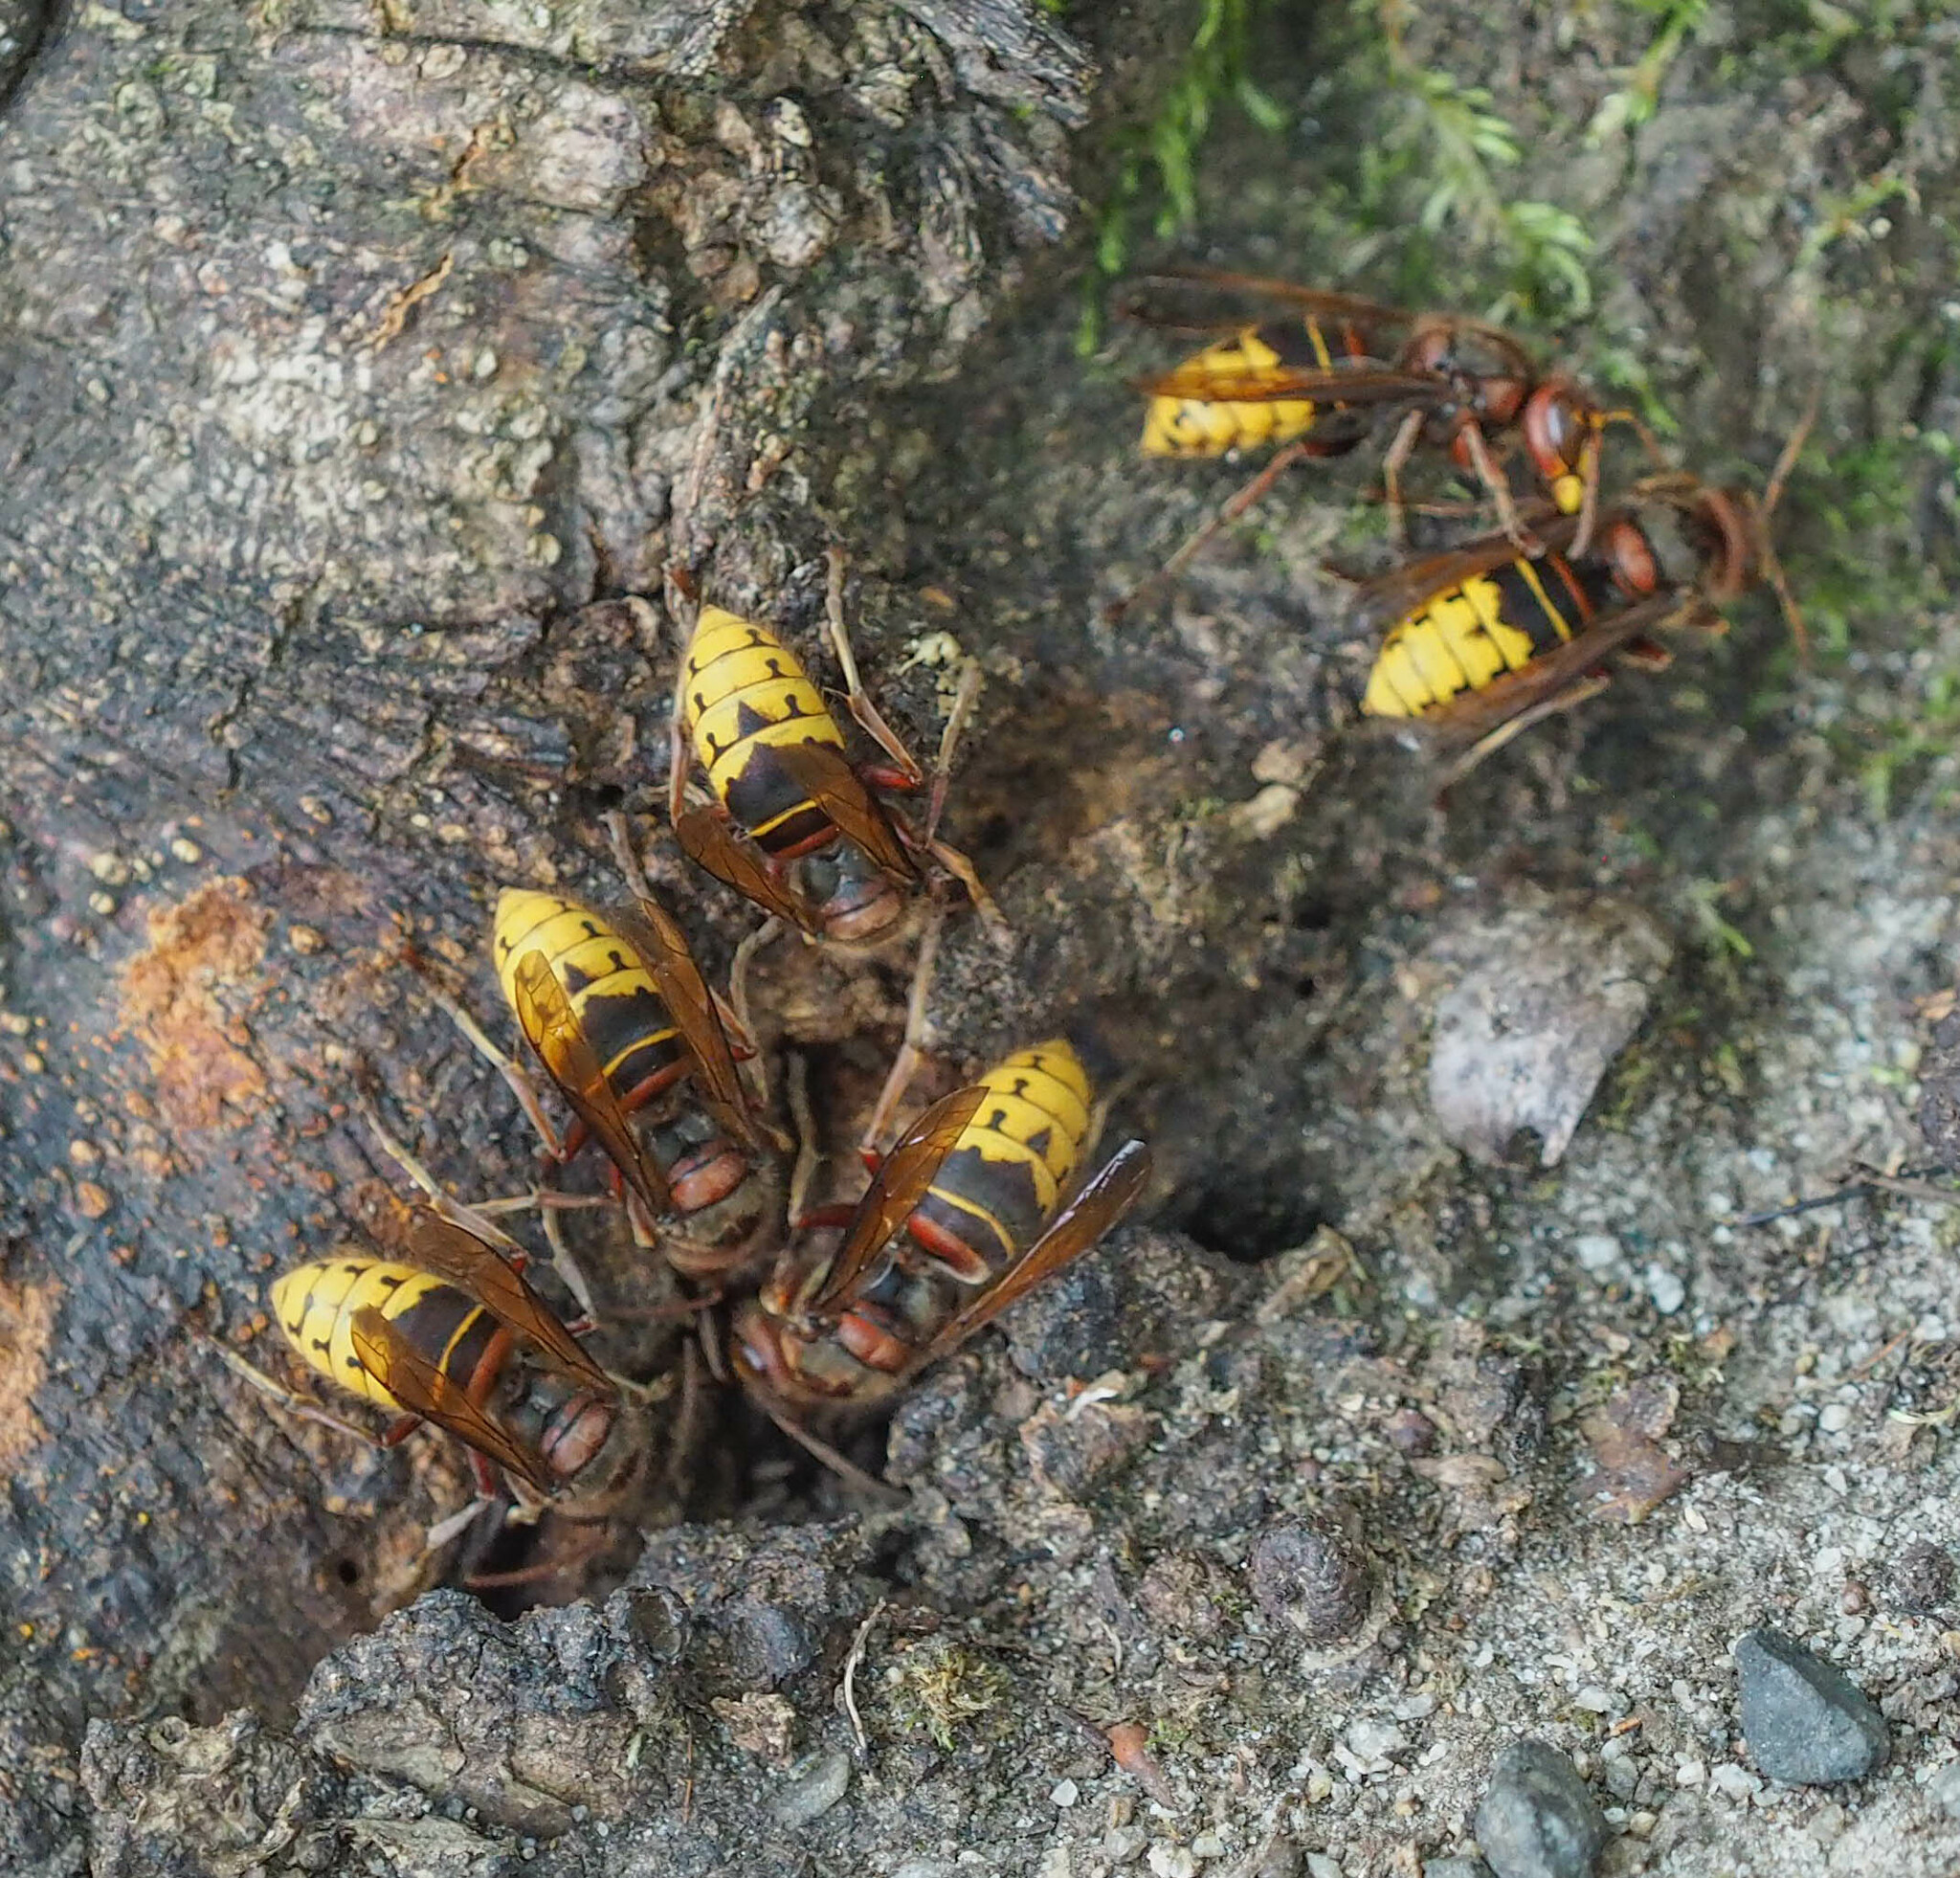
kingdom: Animalia
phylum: Arthropoda
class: Insecta
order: Hymenoptera
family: Vespidae
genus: Vespa
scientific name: Vespa crabro
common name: Hornet
